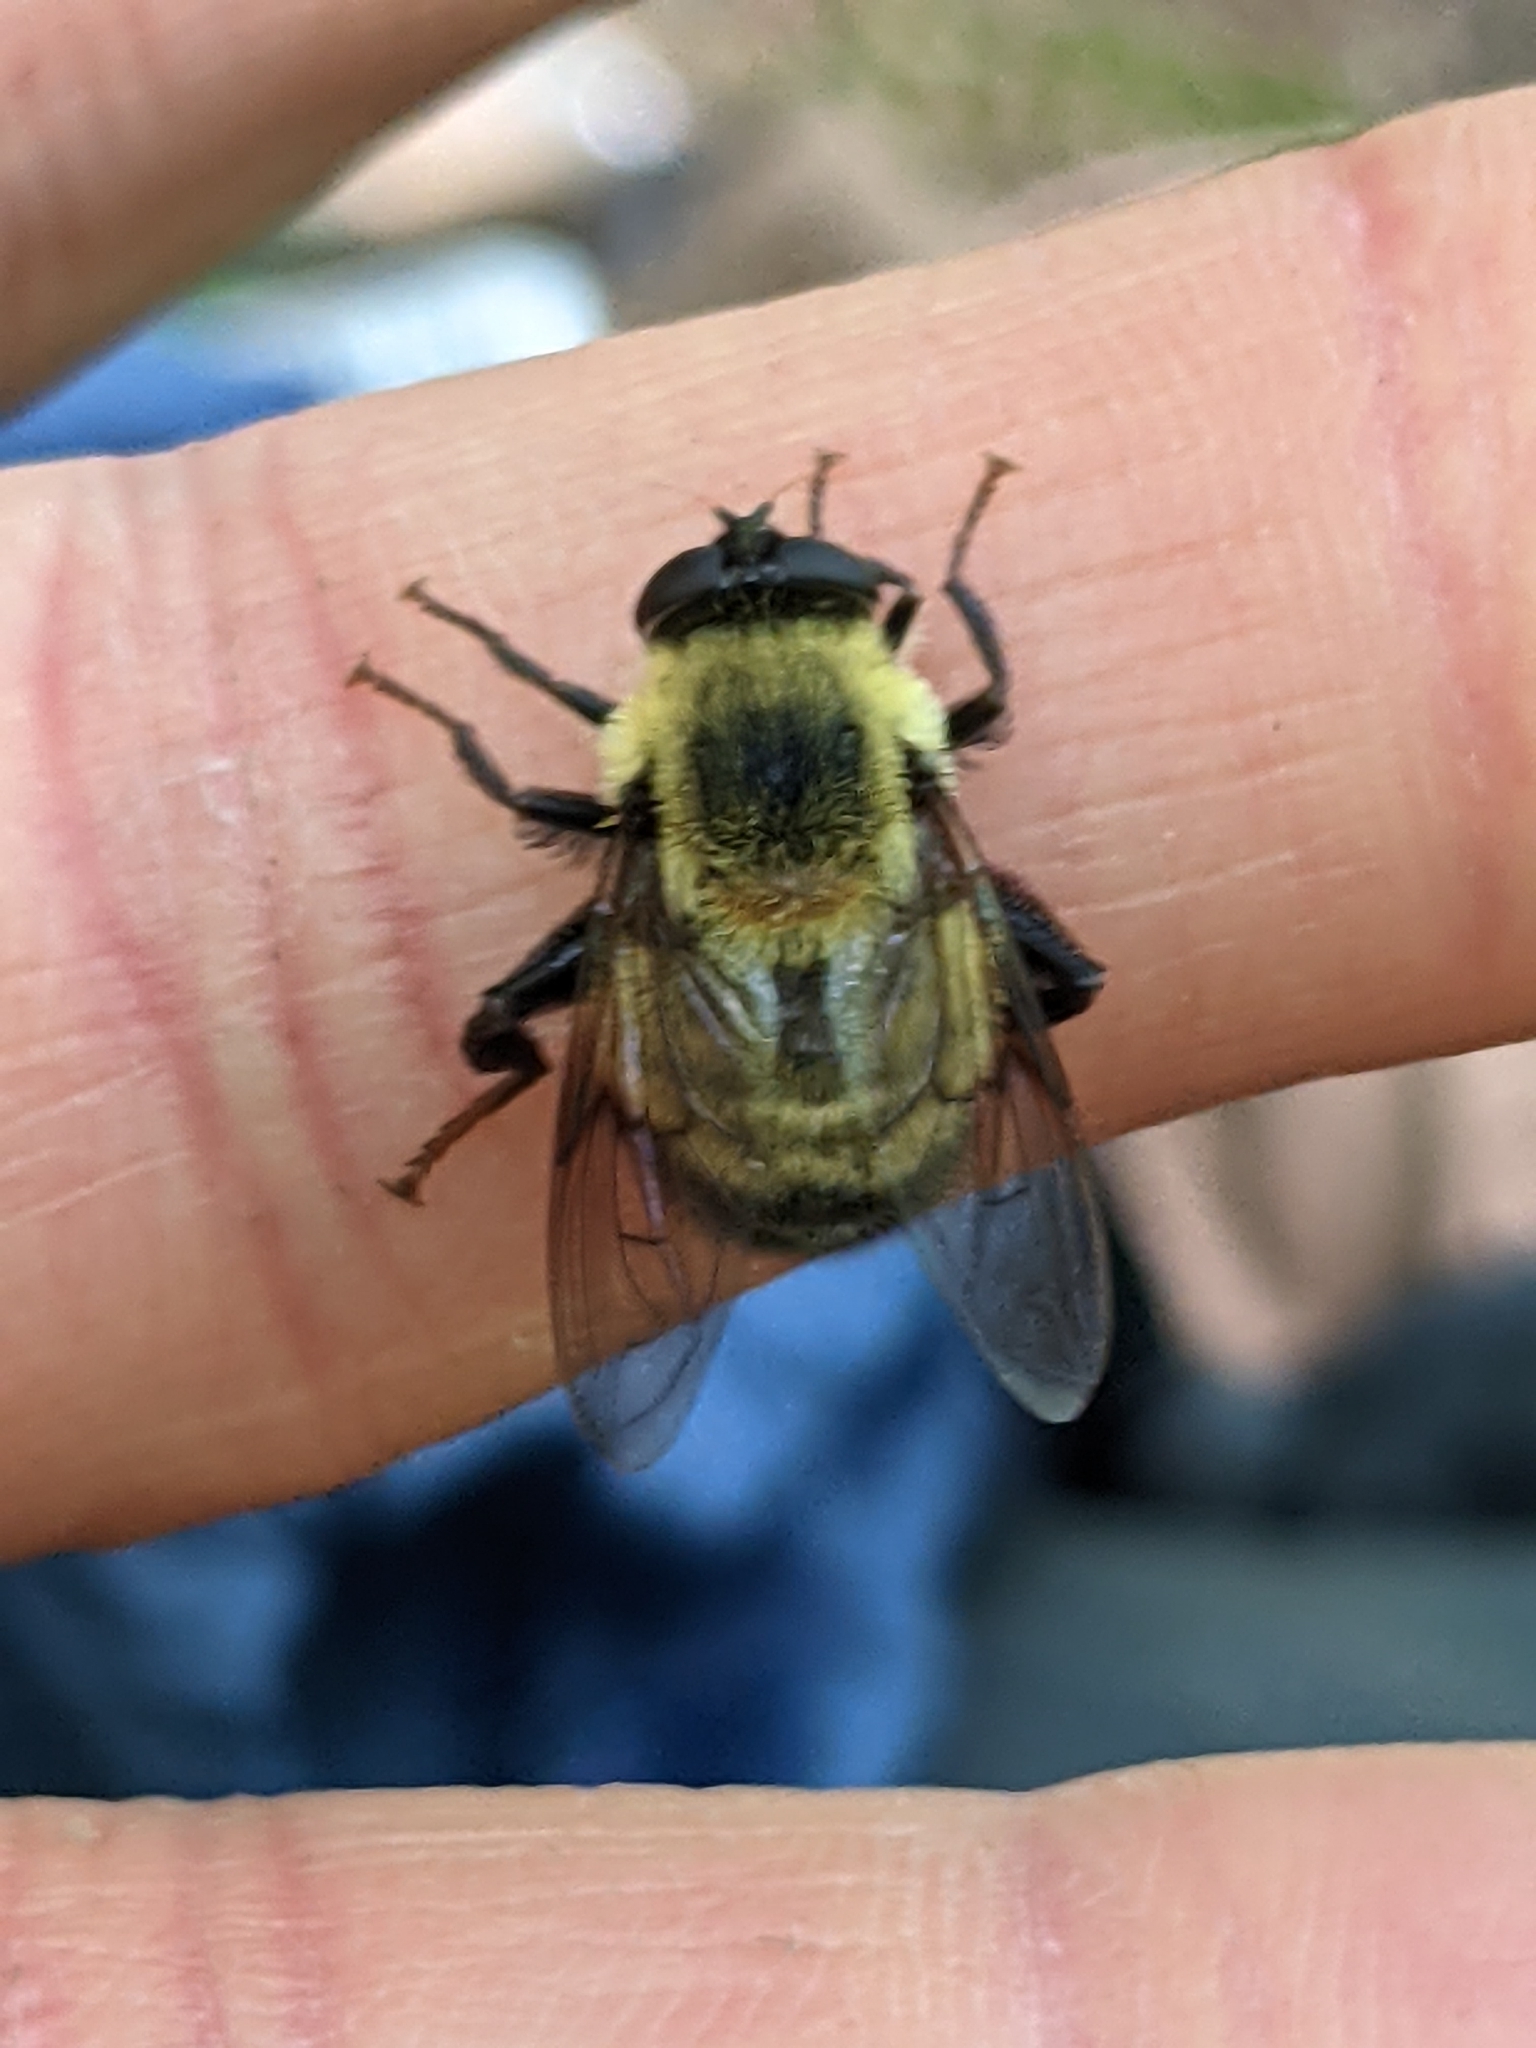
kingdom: Animalia
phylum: Arthropoda
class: Insecta
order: Diptera
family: Syrphidae
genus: Imatisma
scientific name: Imatisma posticata
